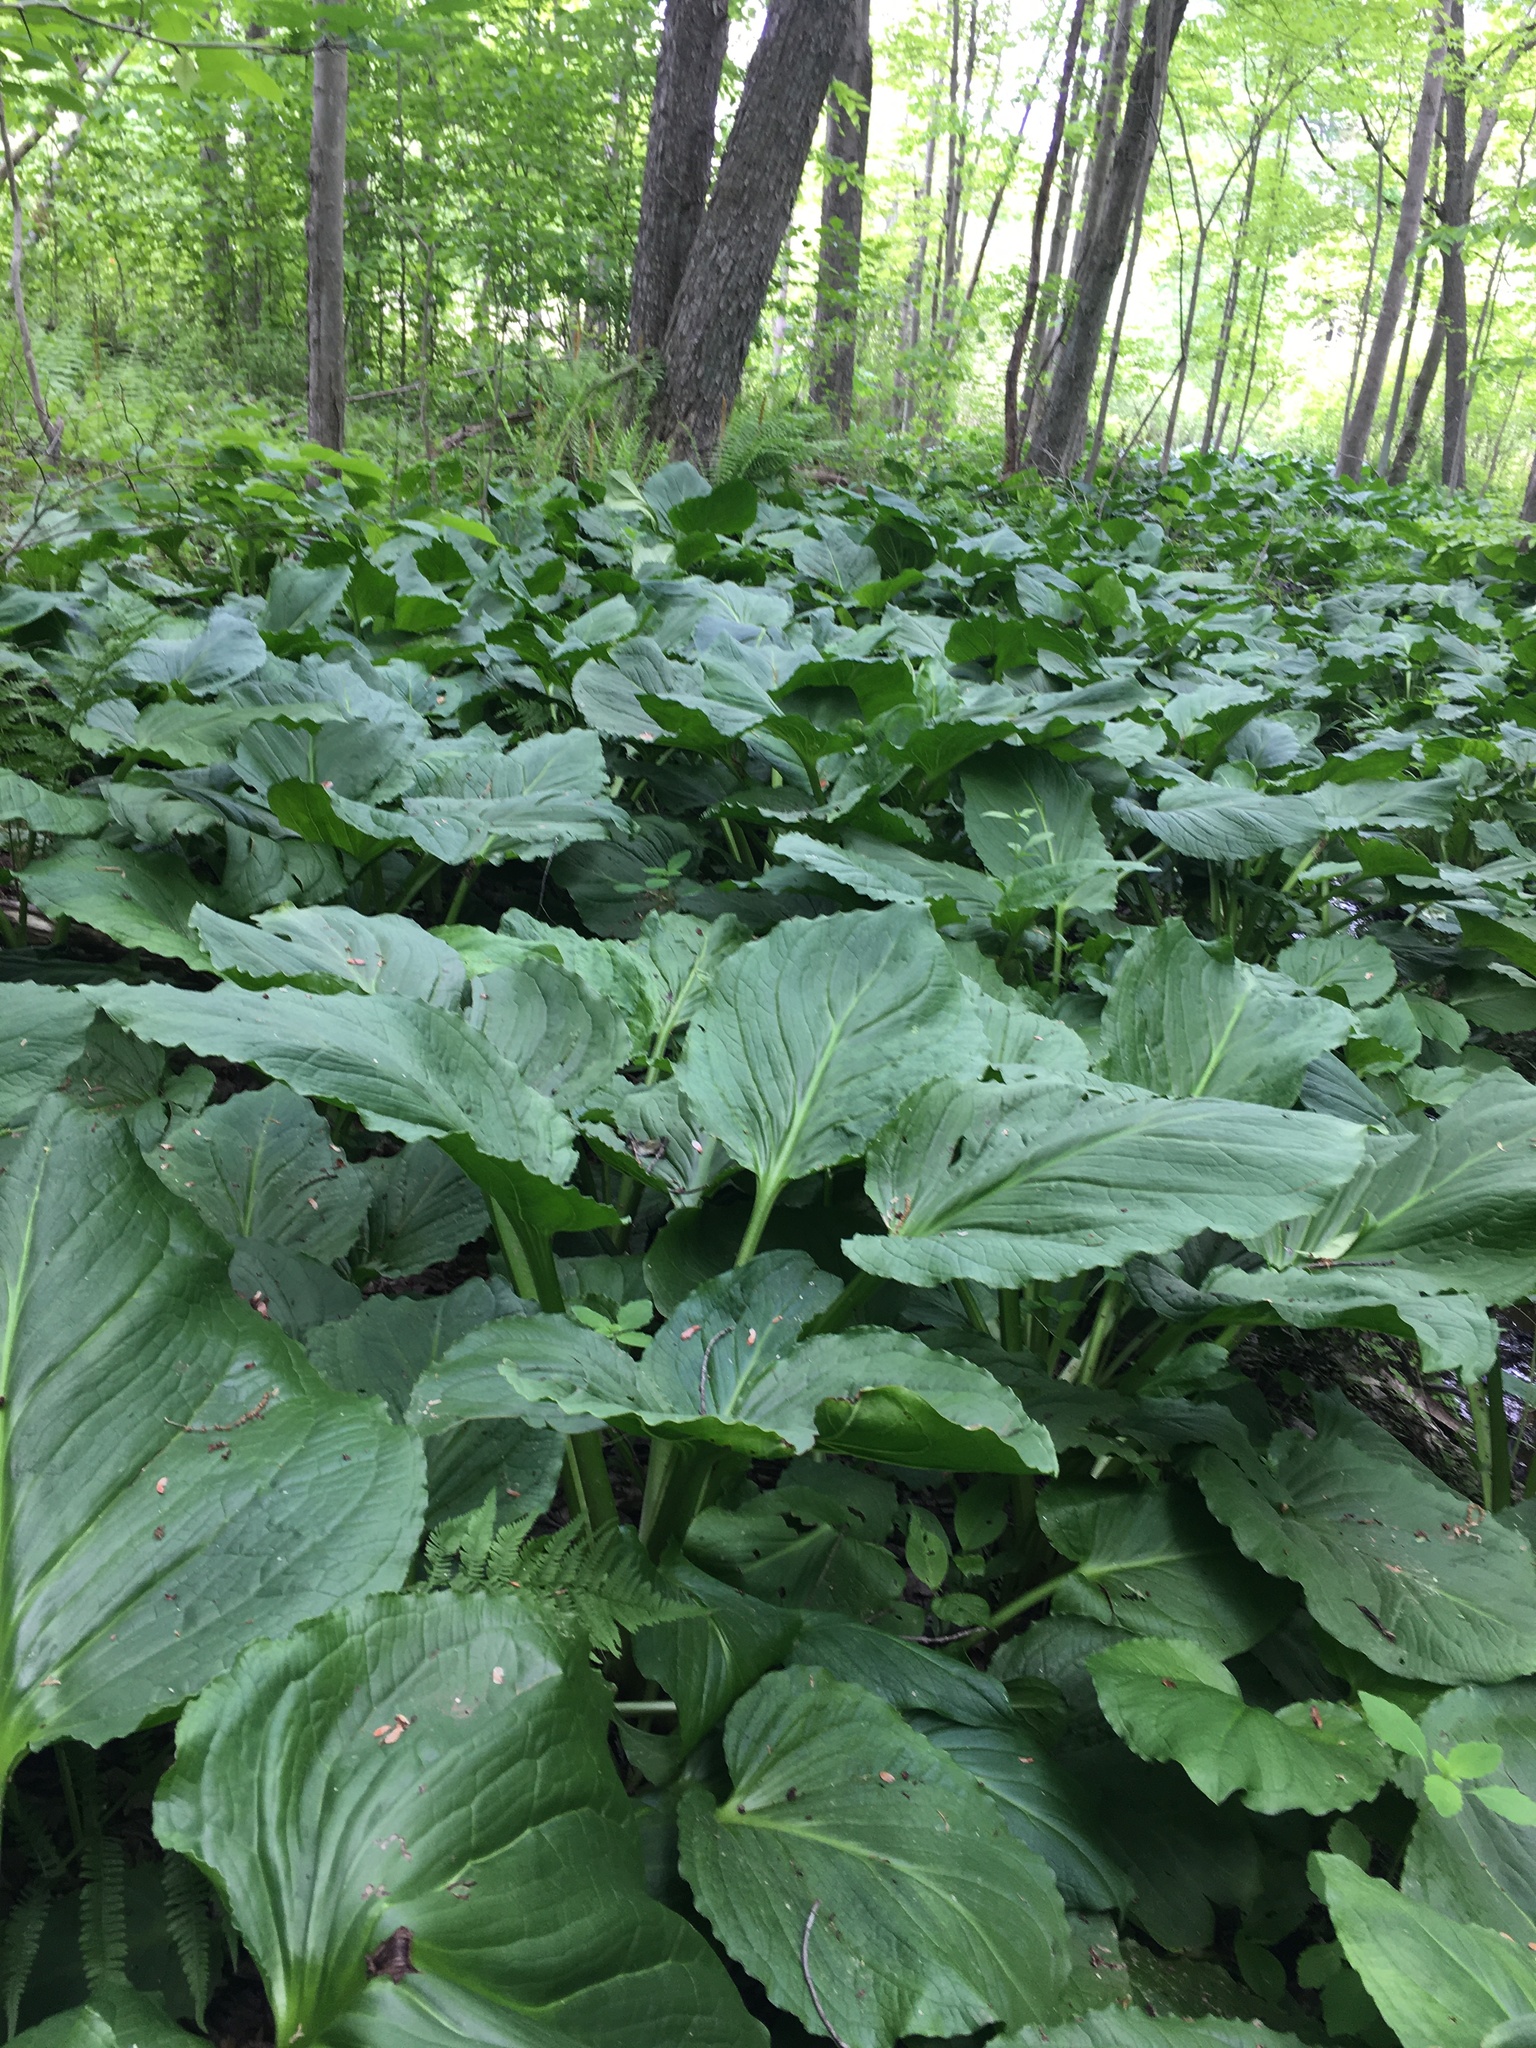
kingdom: Plantae
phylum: Tracheophyta
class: Liliopsida
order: Alismatales
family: Araceae
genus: Symplocarpus
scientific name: Symplocarpus foetidus
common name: Eastern skunk cabbage
